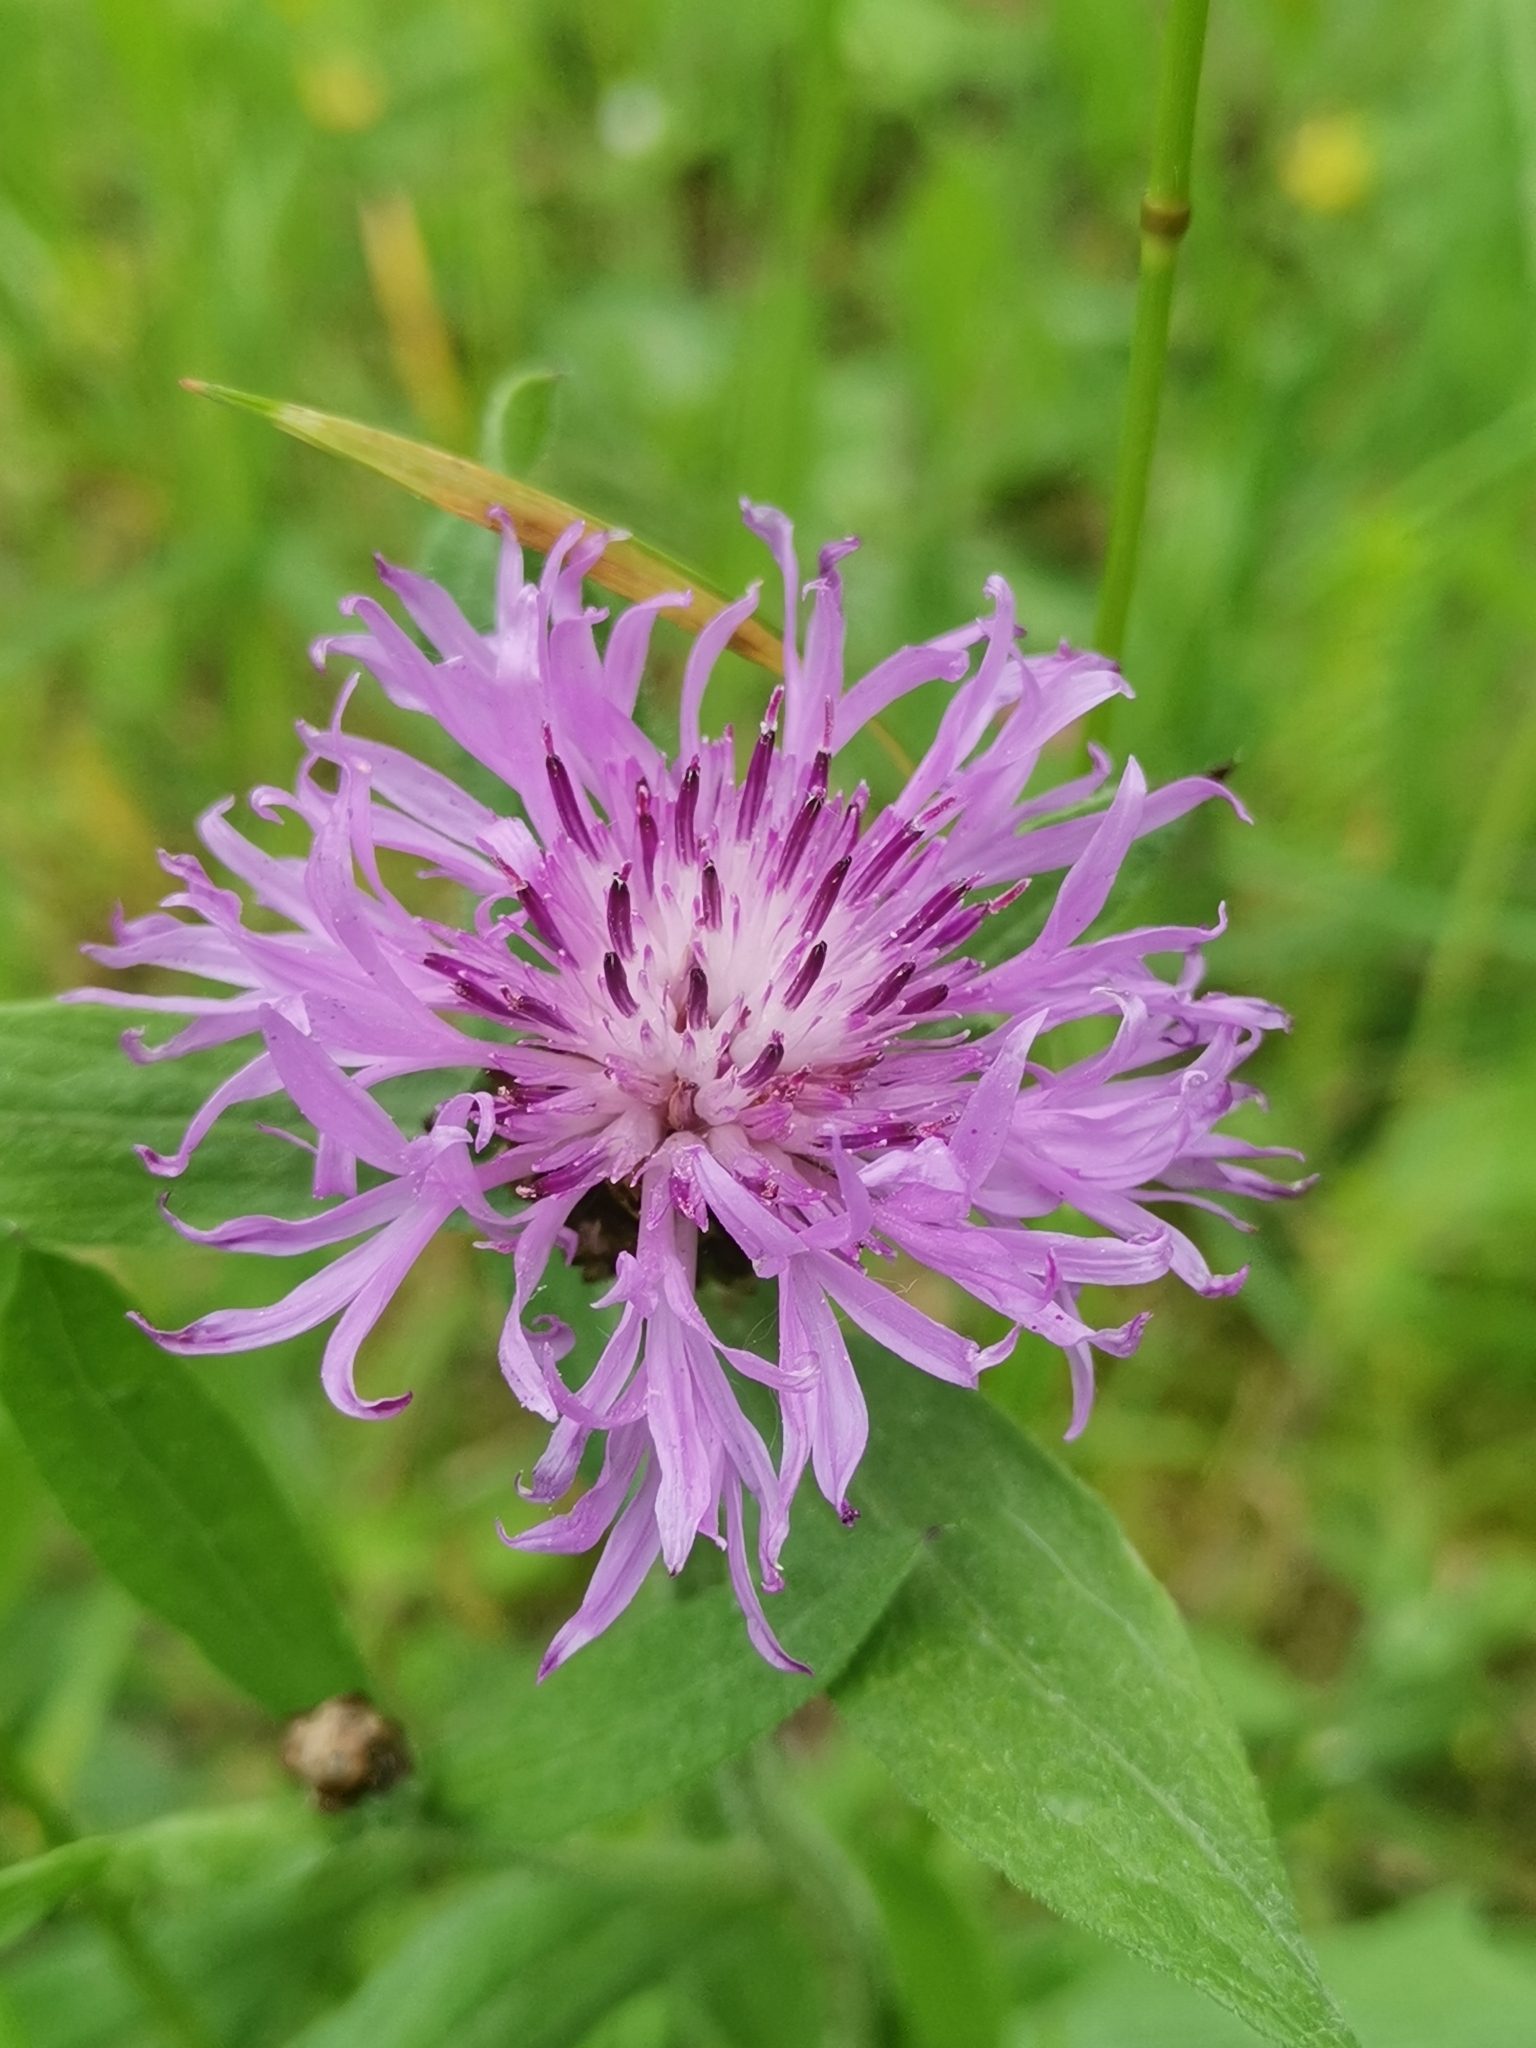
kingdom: Plantae
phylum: Tracheophyta
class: Magnoliopsida
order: Asterales
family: Asteraceae
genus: Centaurea
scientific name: Centaurea jacea
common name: Brown knapweed
